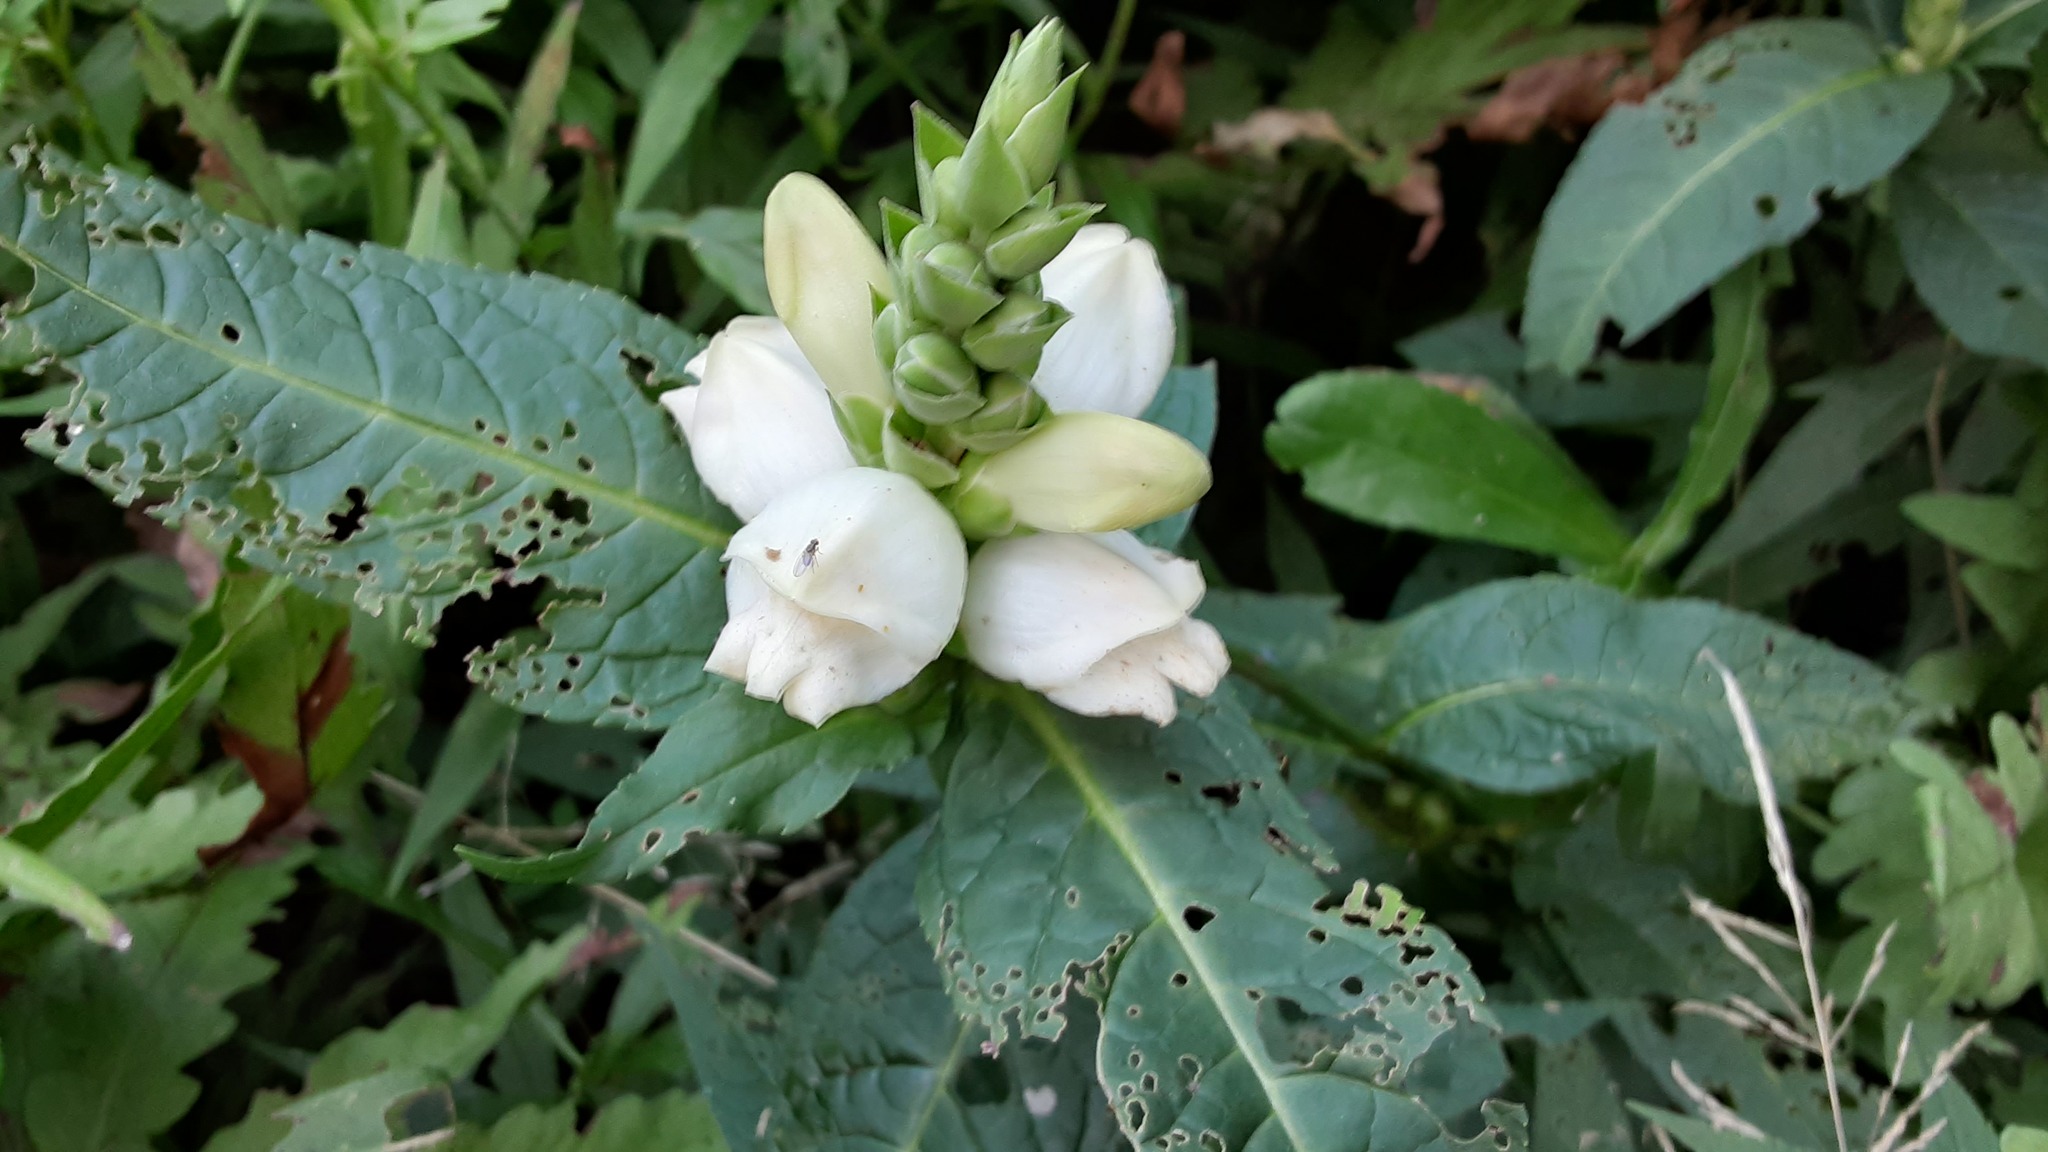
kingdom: Plantae
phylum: Tracheophyta
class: Magnoliopsida
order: Lamiales
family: Plantaginaceae
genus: Chelone
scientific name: Chelone glabra
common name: Snakehead
